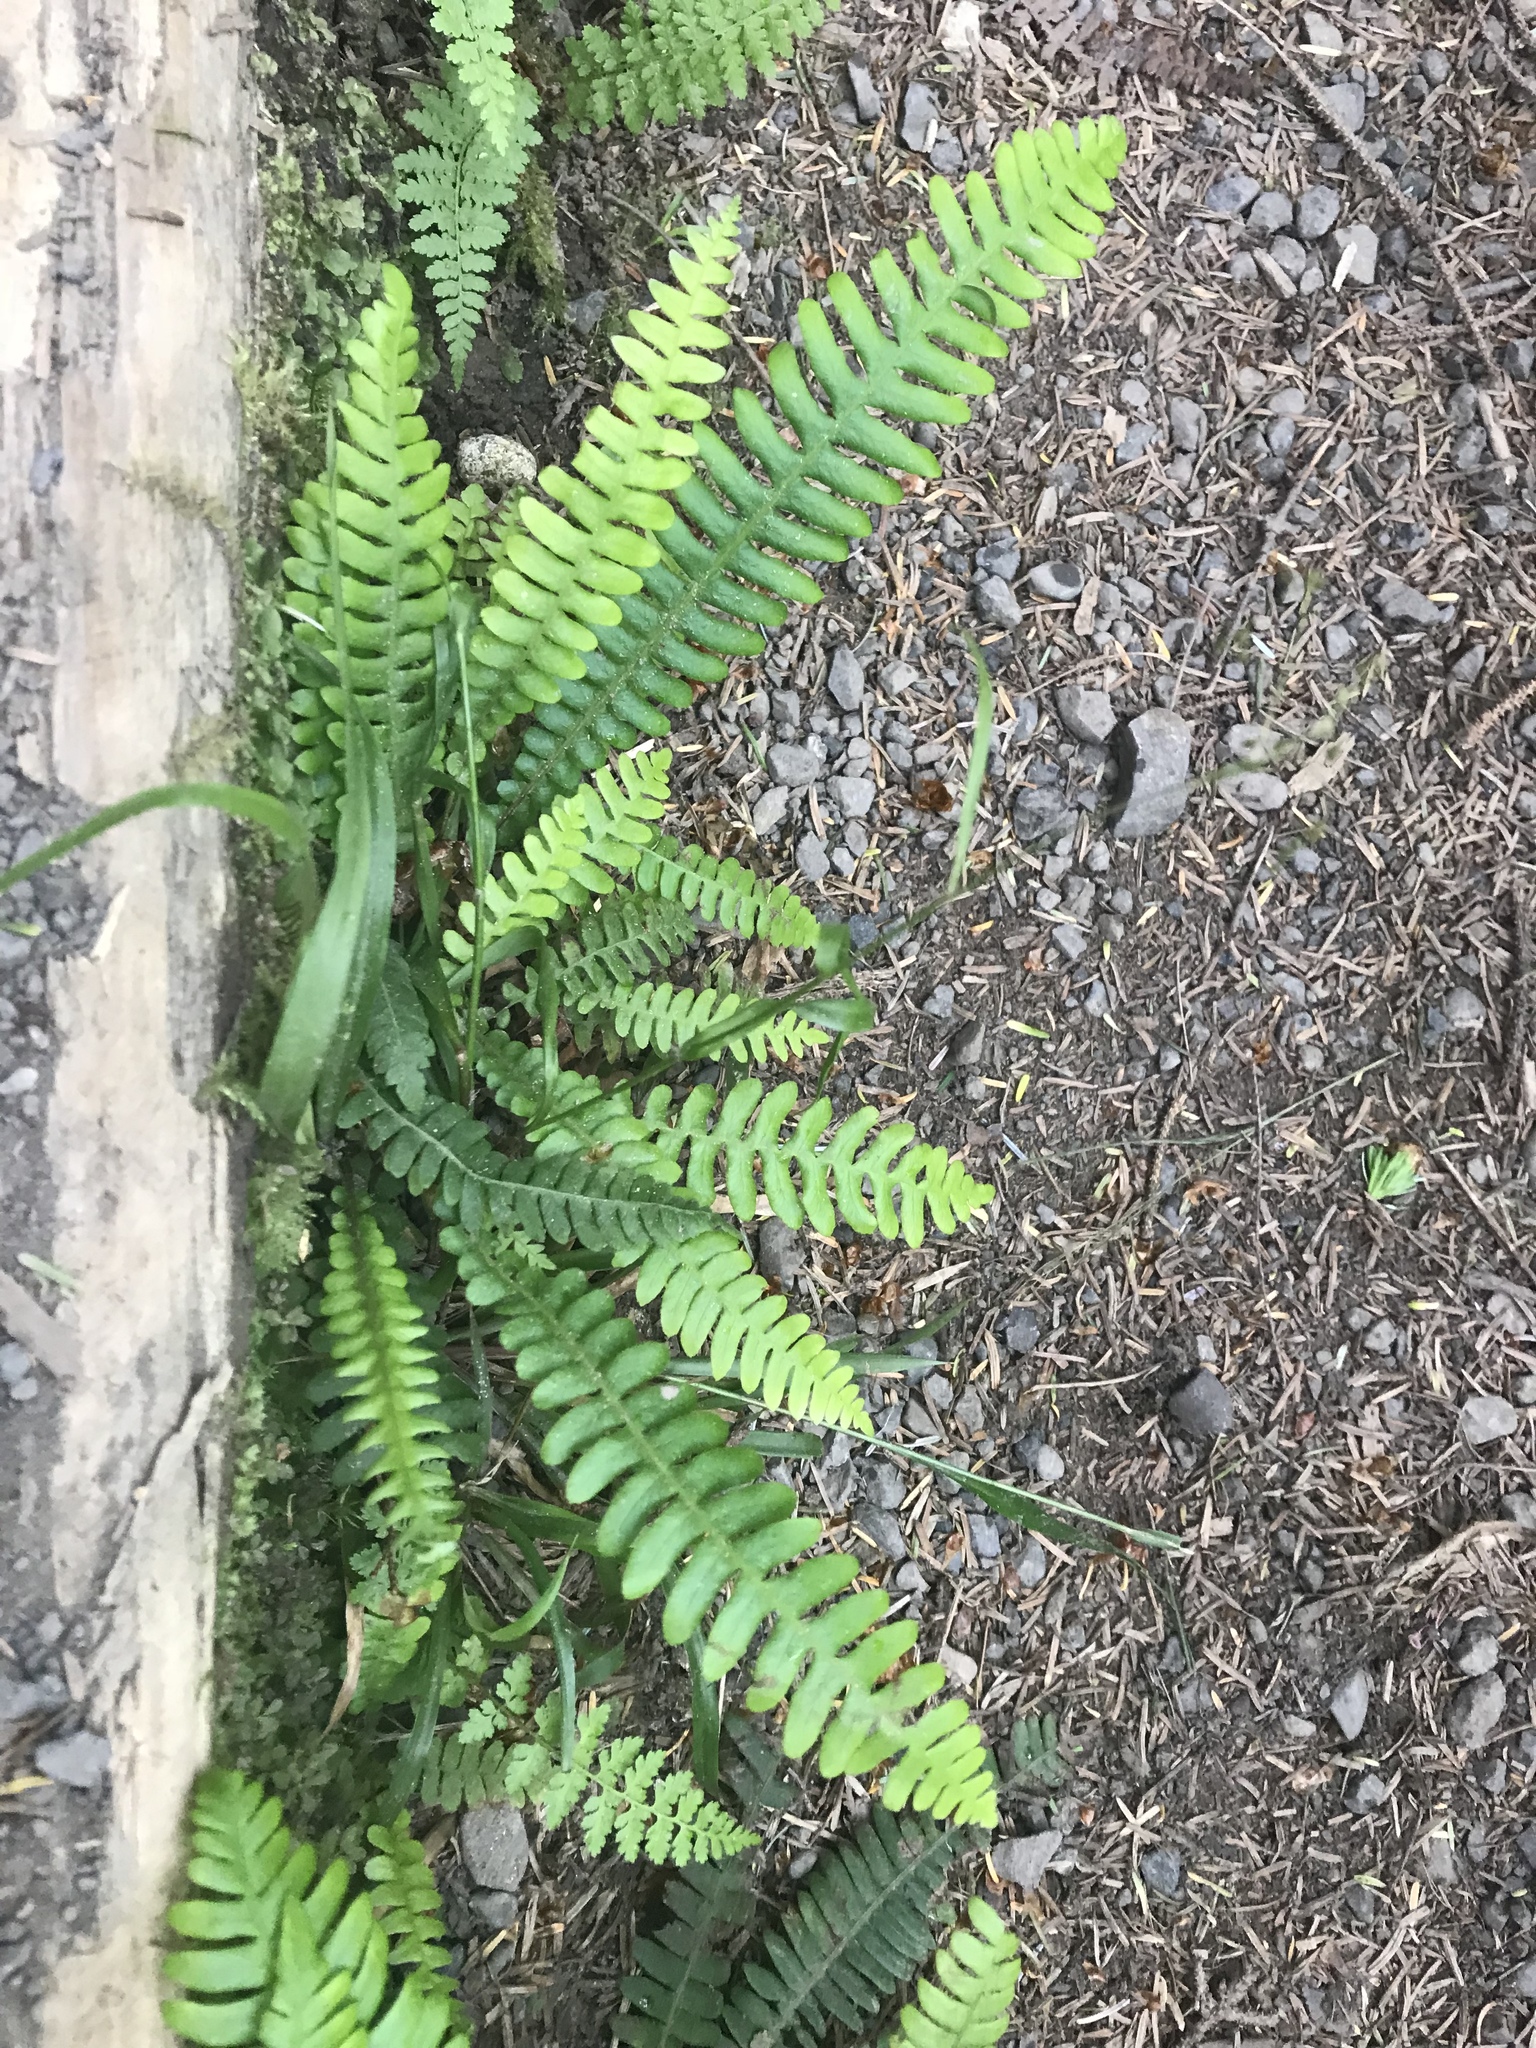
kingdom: Plantae
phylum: Tracheophyta
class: Polypodiopsida
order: Polypodiales
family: Blechnaceae
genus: Struthiopteris
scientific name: Struthiopteris spicant
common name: Deer fern
